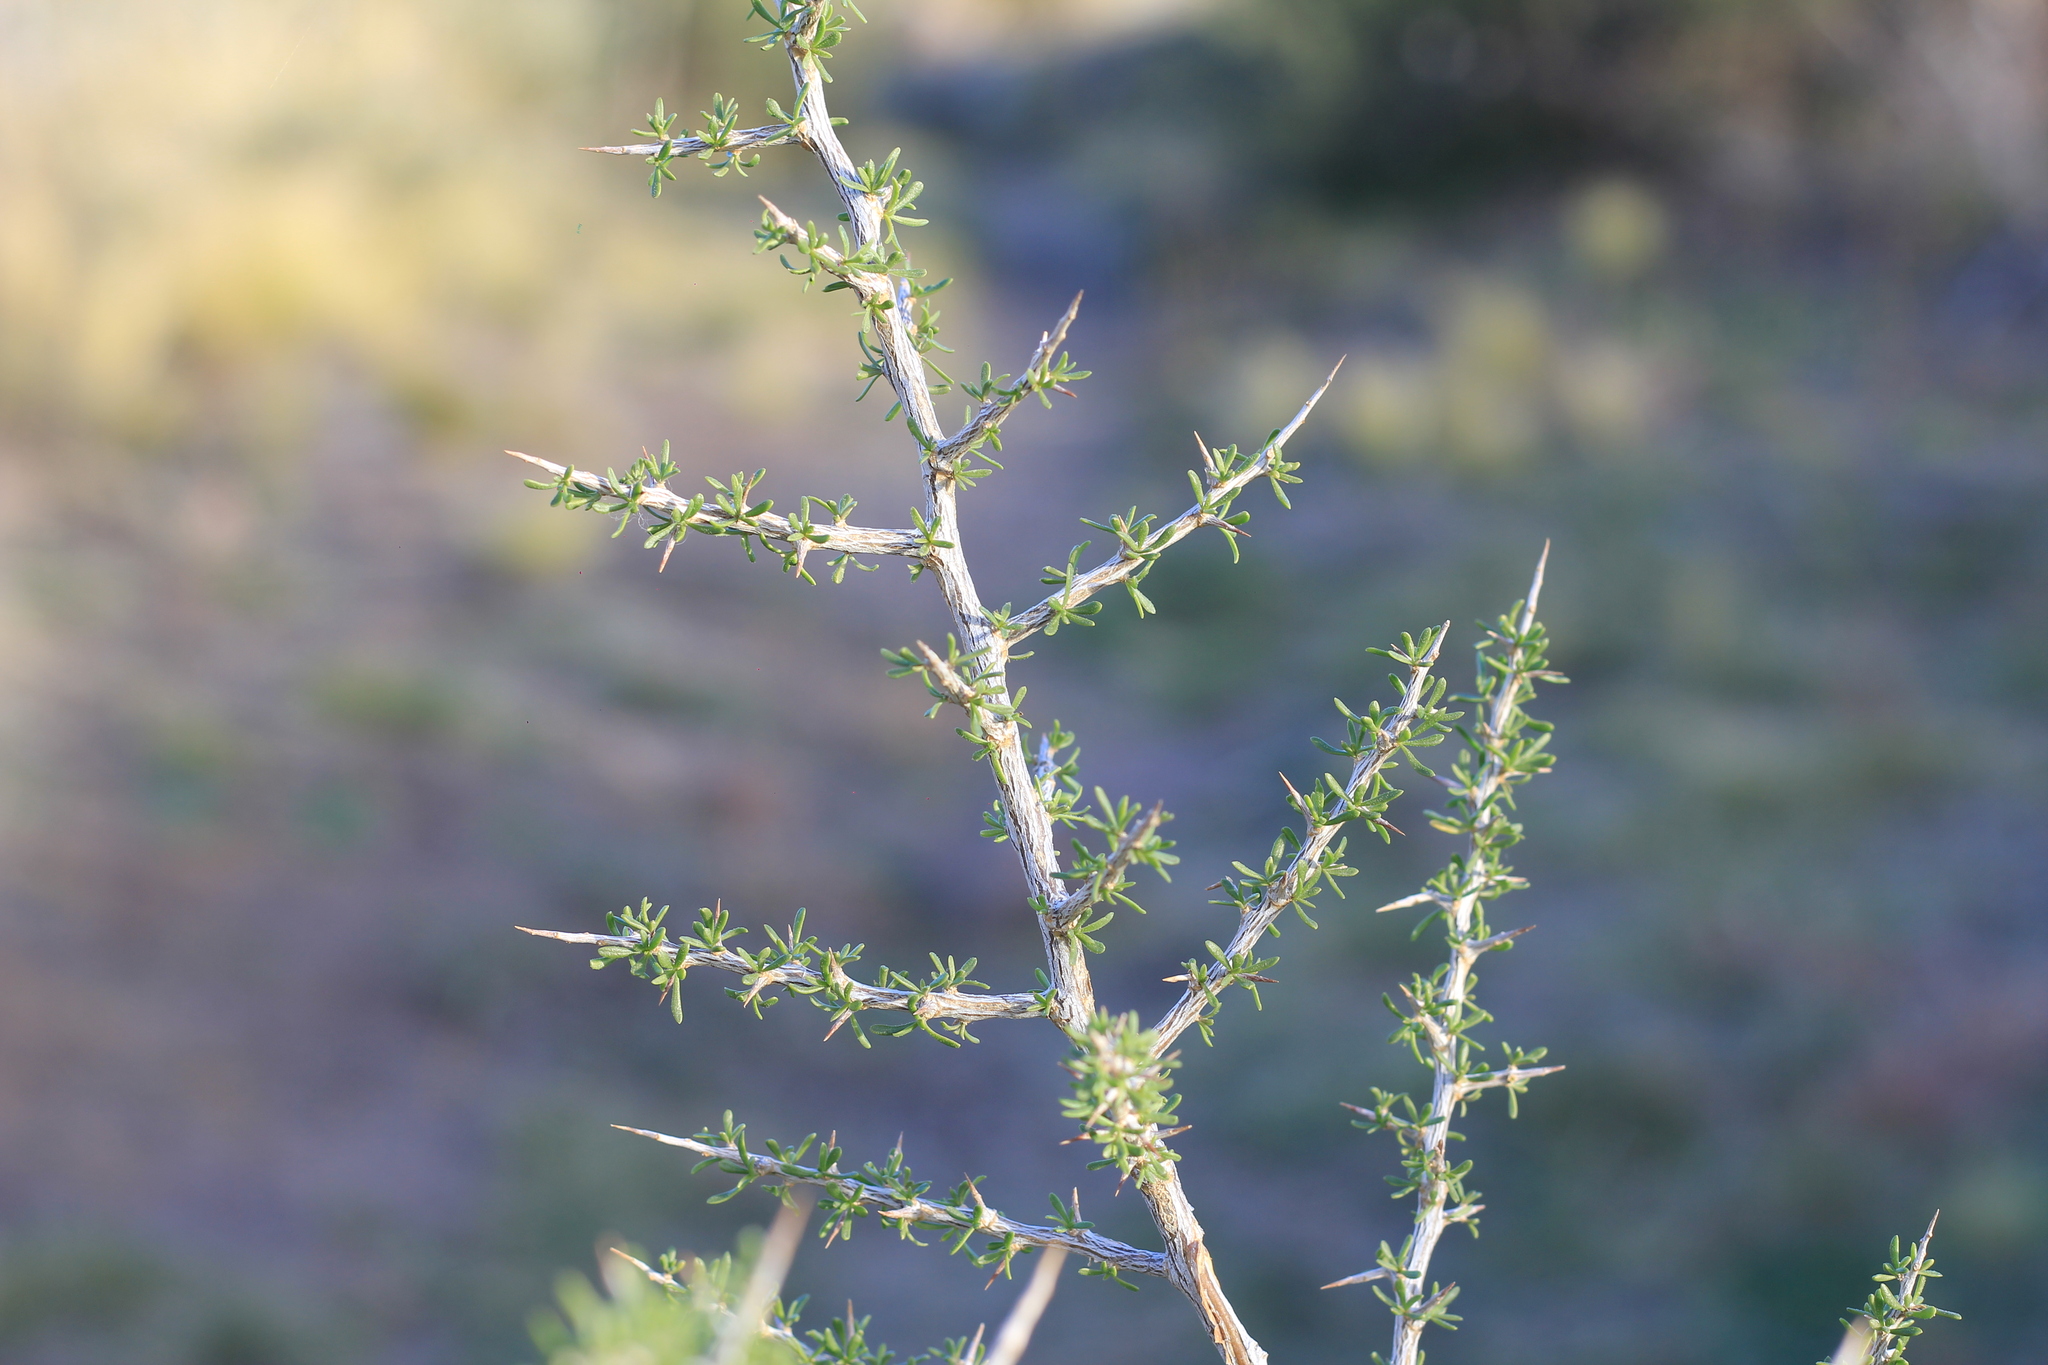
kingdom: Plantae
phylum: Tracheophyta
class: Magnoliopsida
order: Solanales
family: Solanaceae
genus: Lycium
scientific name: Lycium tenuispinosum
